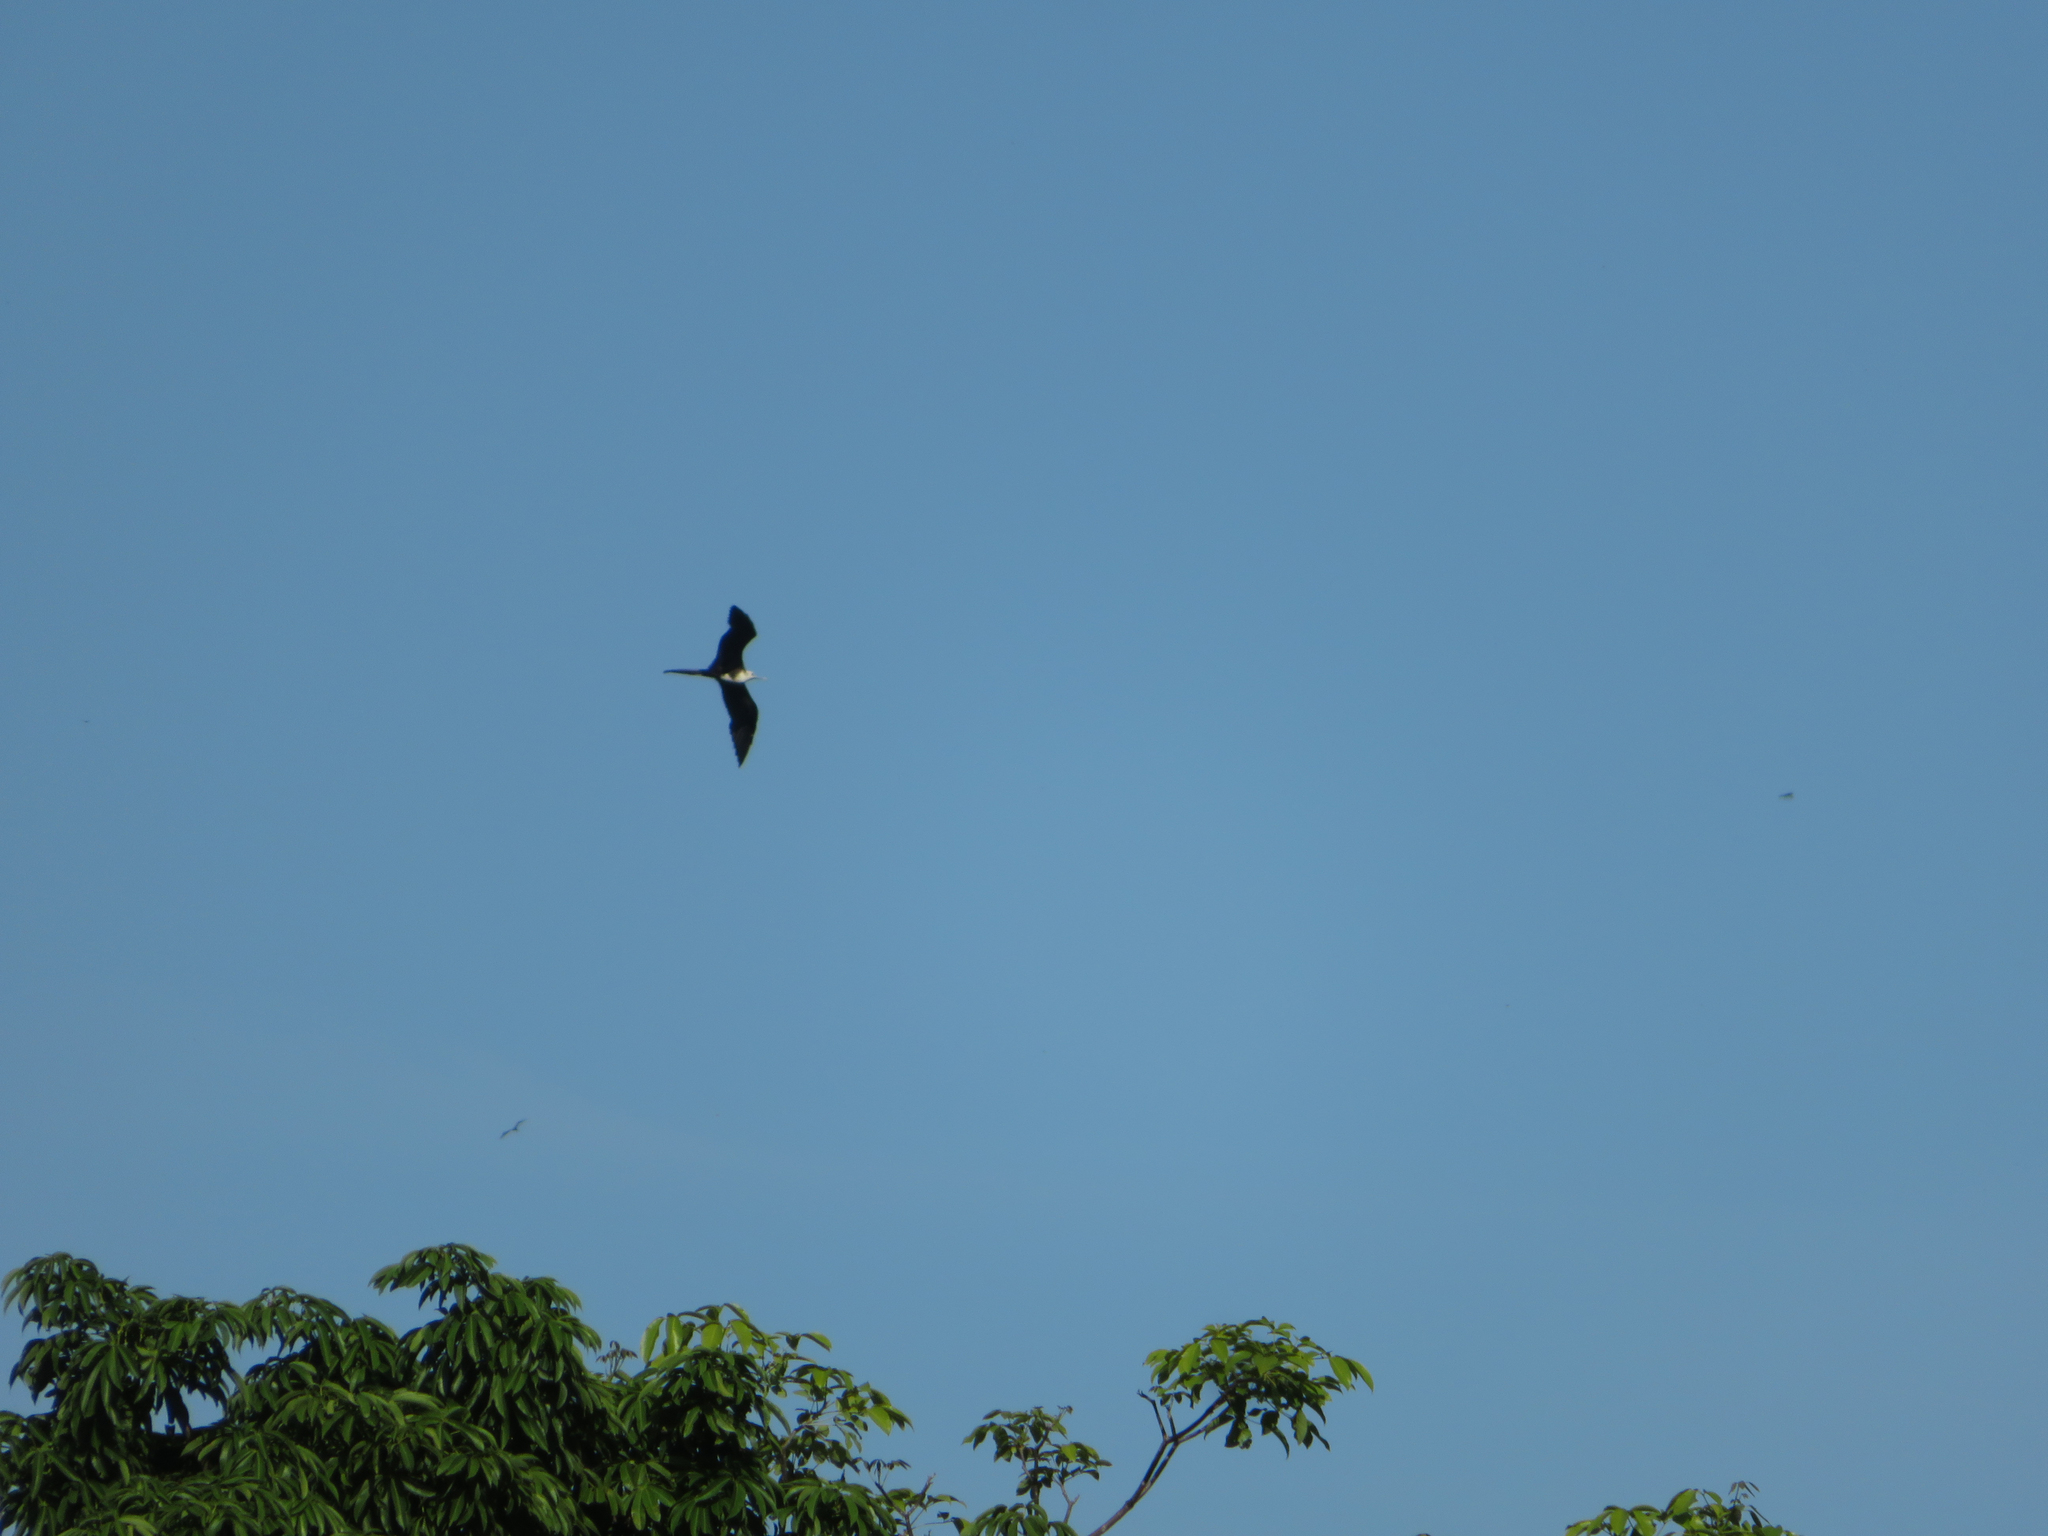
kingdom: Animalia
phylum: Chordata
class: Aves
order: Suliformes
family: Fregatidae
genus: Fregata
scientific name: Fregata magnificens
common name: Magnificent frigatebird
